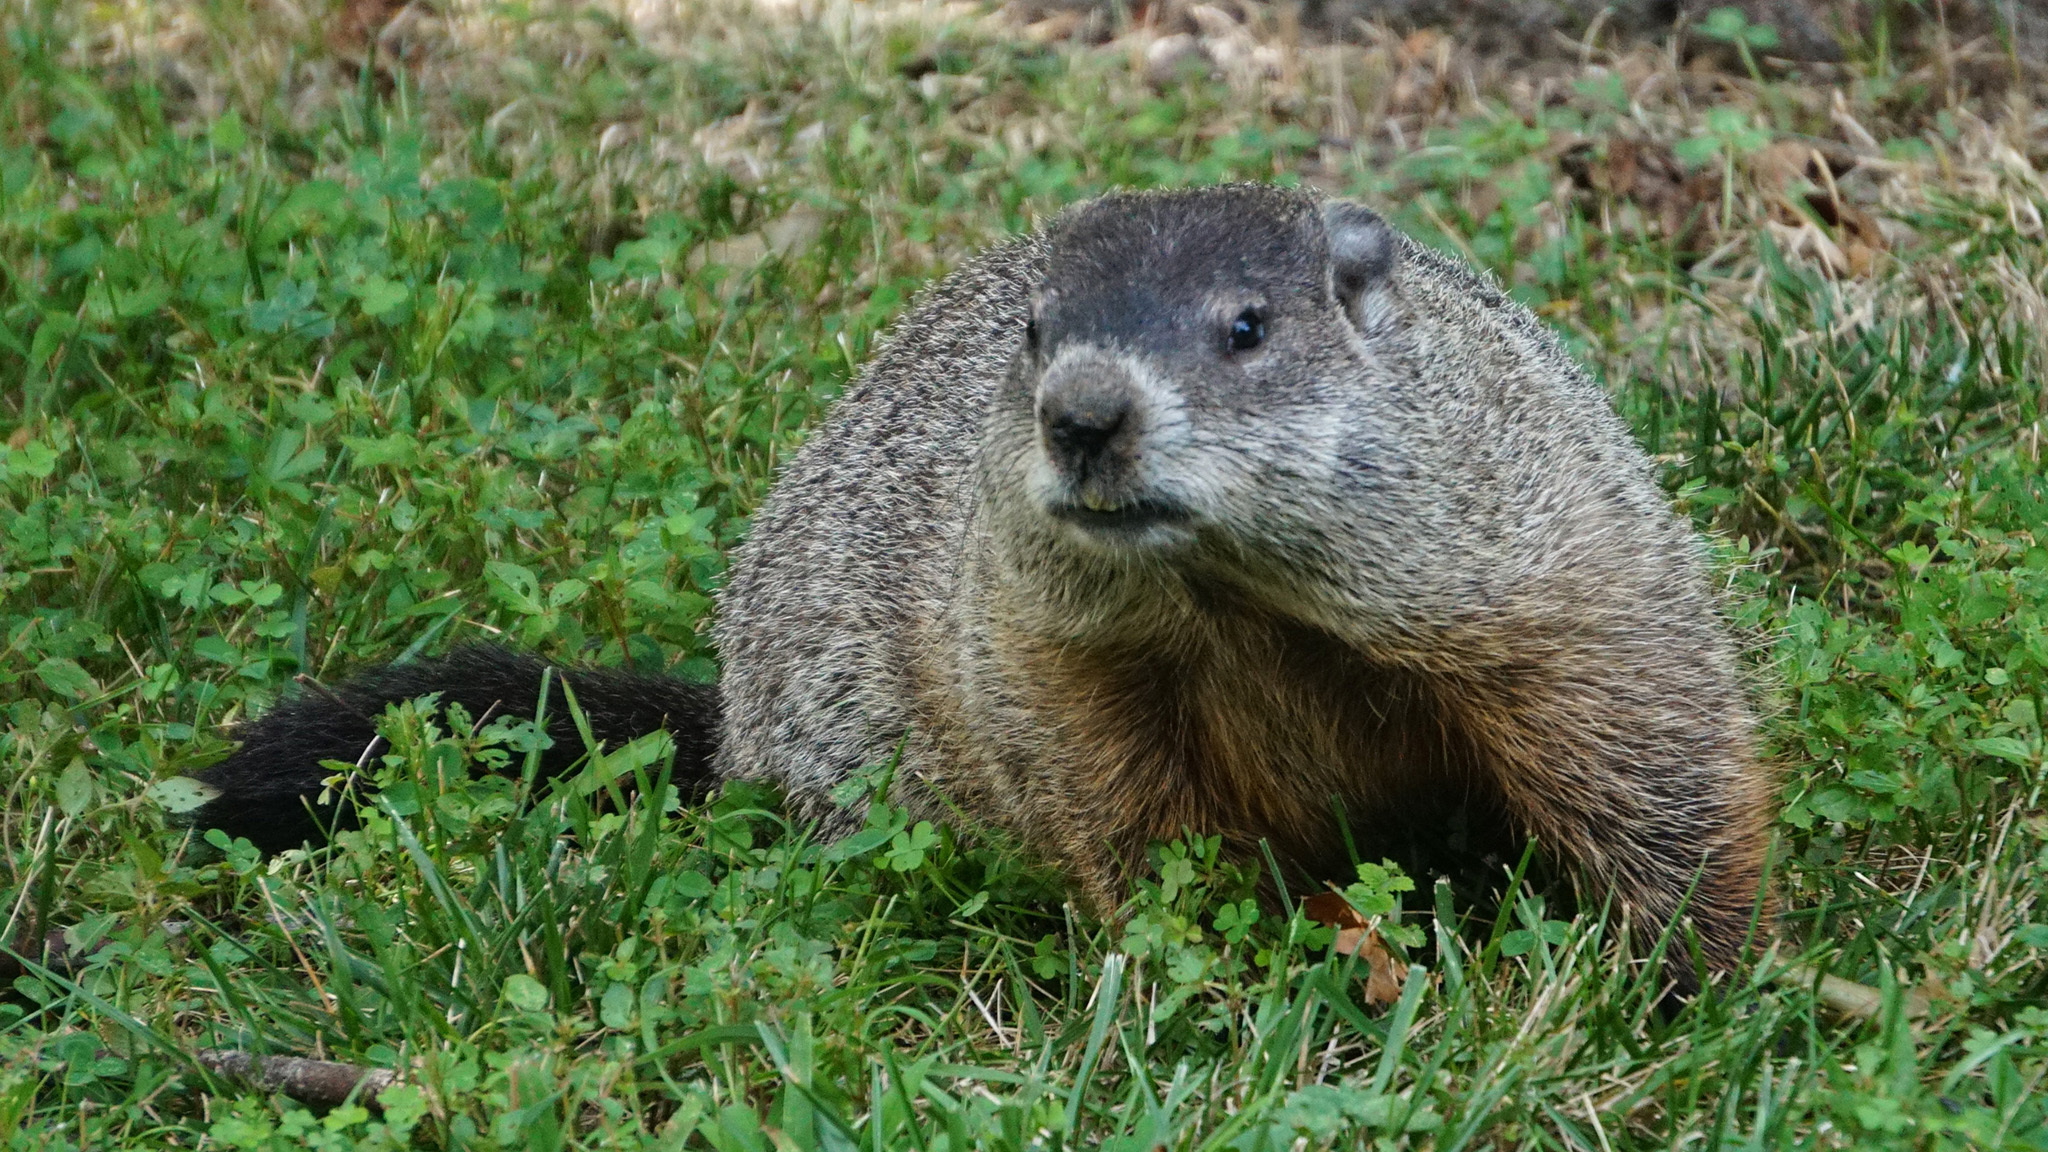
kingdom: Animalia
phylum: Chordata
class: Mammalia
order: Rodentia
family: Sciuridae
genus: Marmota
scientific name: Marmota monax
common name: Groundhog
